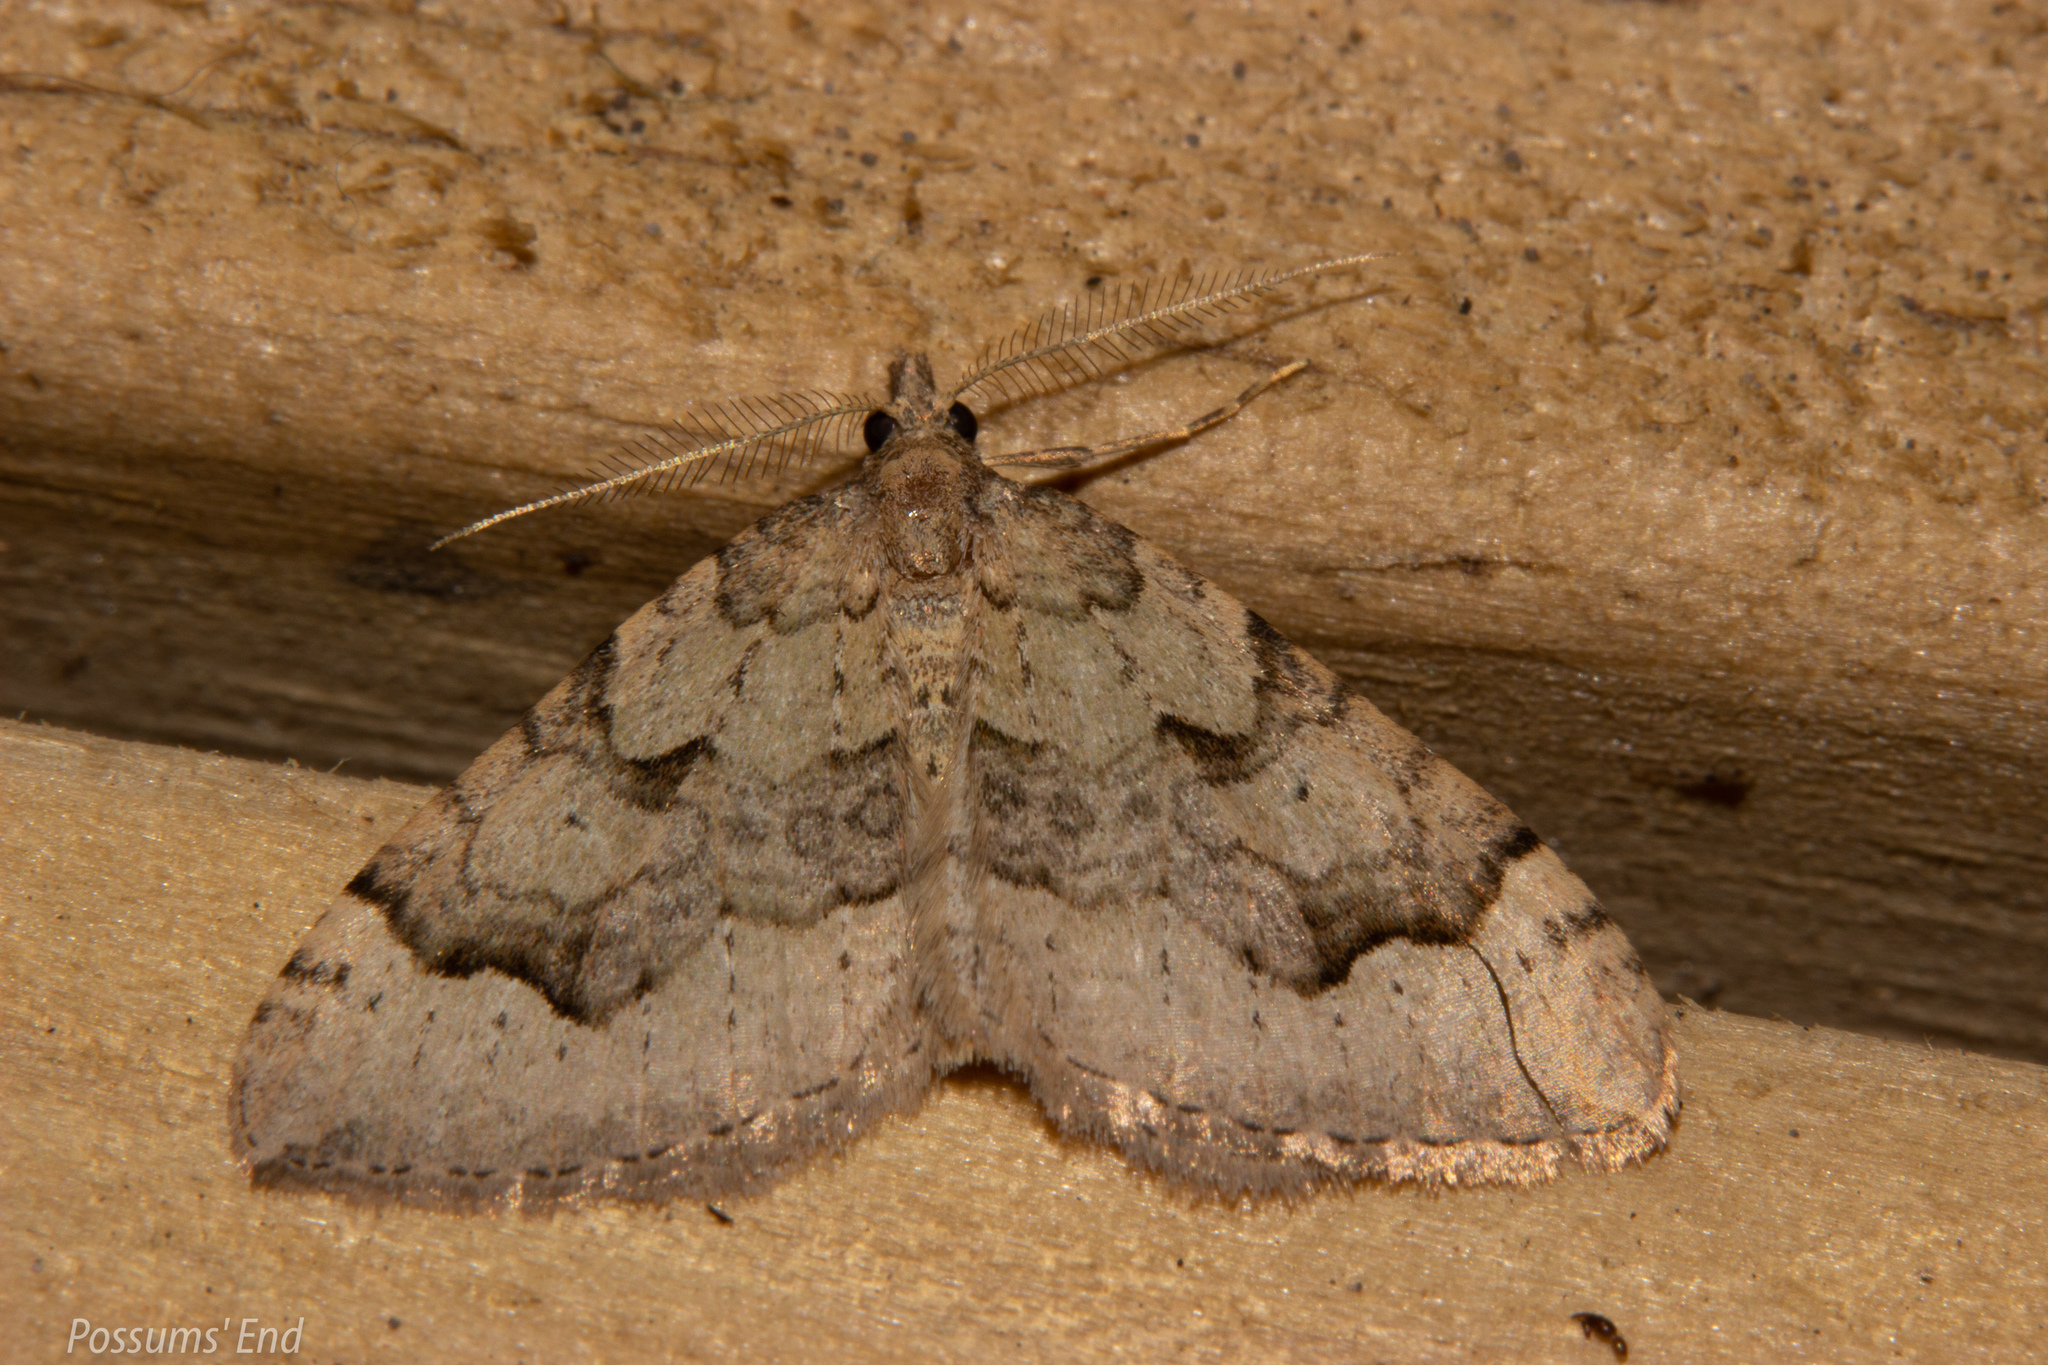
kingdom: Animalia
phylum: Arthropoda
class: Insecta
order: Lepidoptera
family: Geometridae
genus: Epyaxa
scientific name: Epyaxa rosearia
